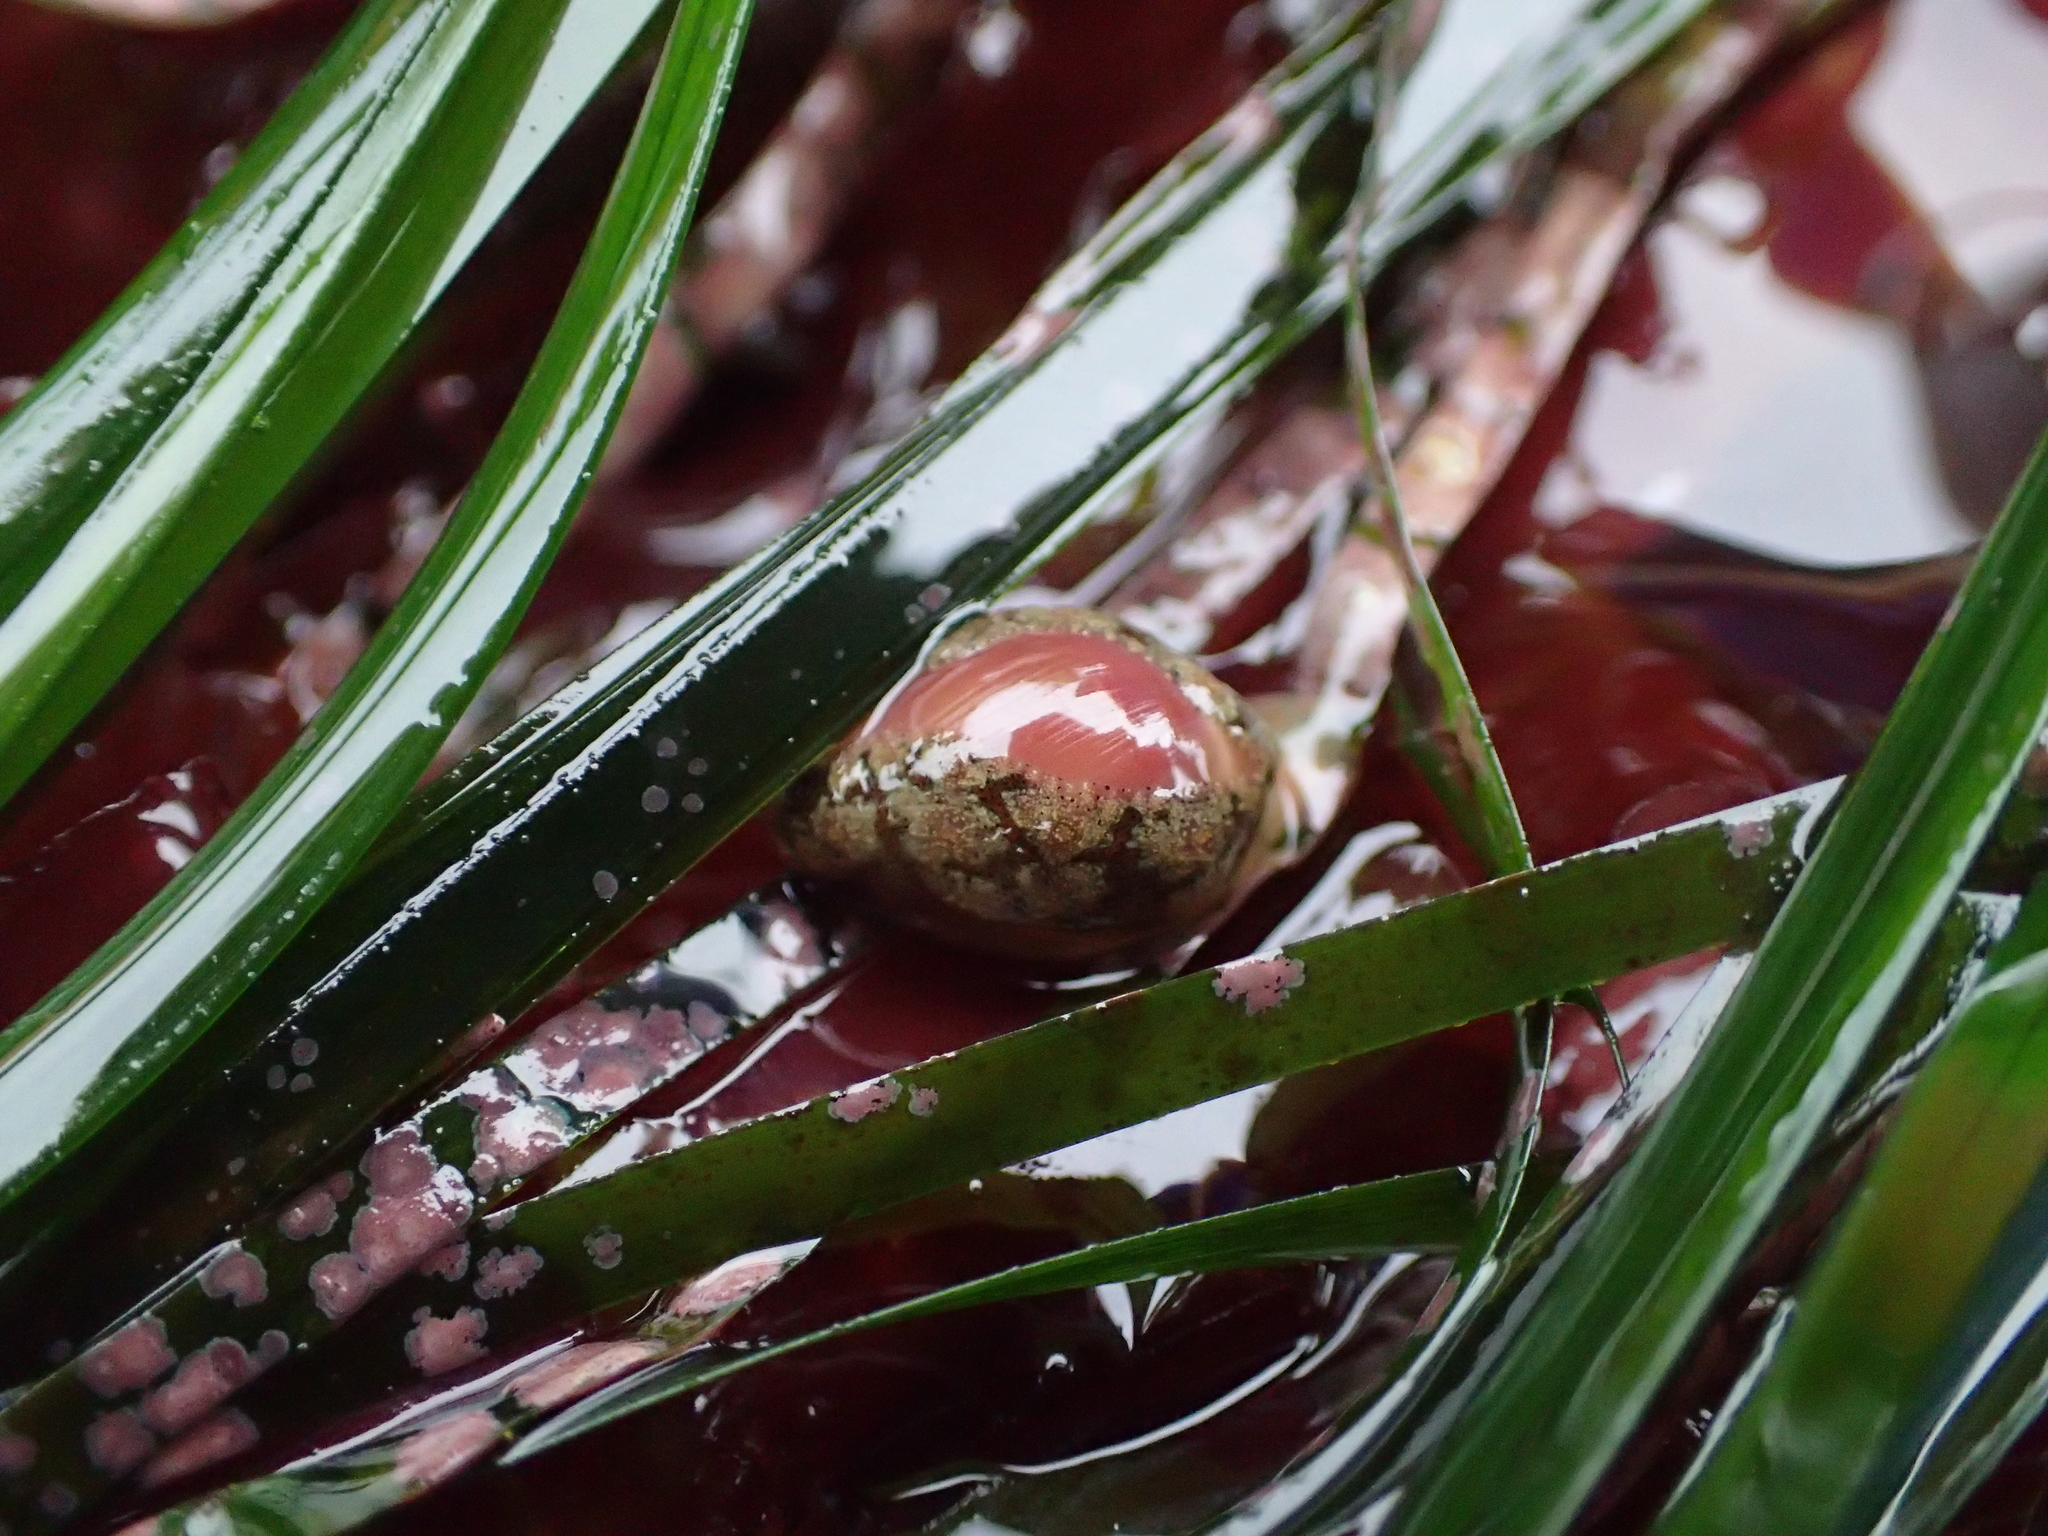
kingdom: Animalia
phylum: Mollusca
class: Gastropoda
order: Littorinimorpha
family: Eratoidae
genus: Hespererato
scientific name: Hespererato vitellina
